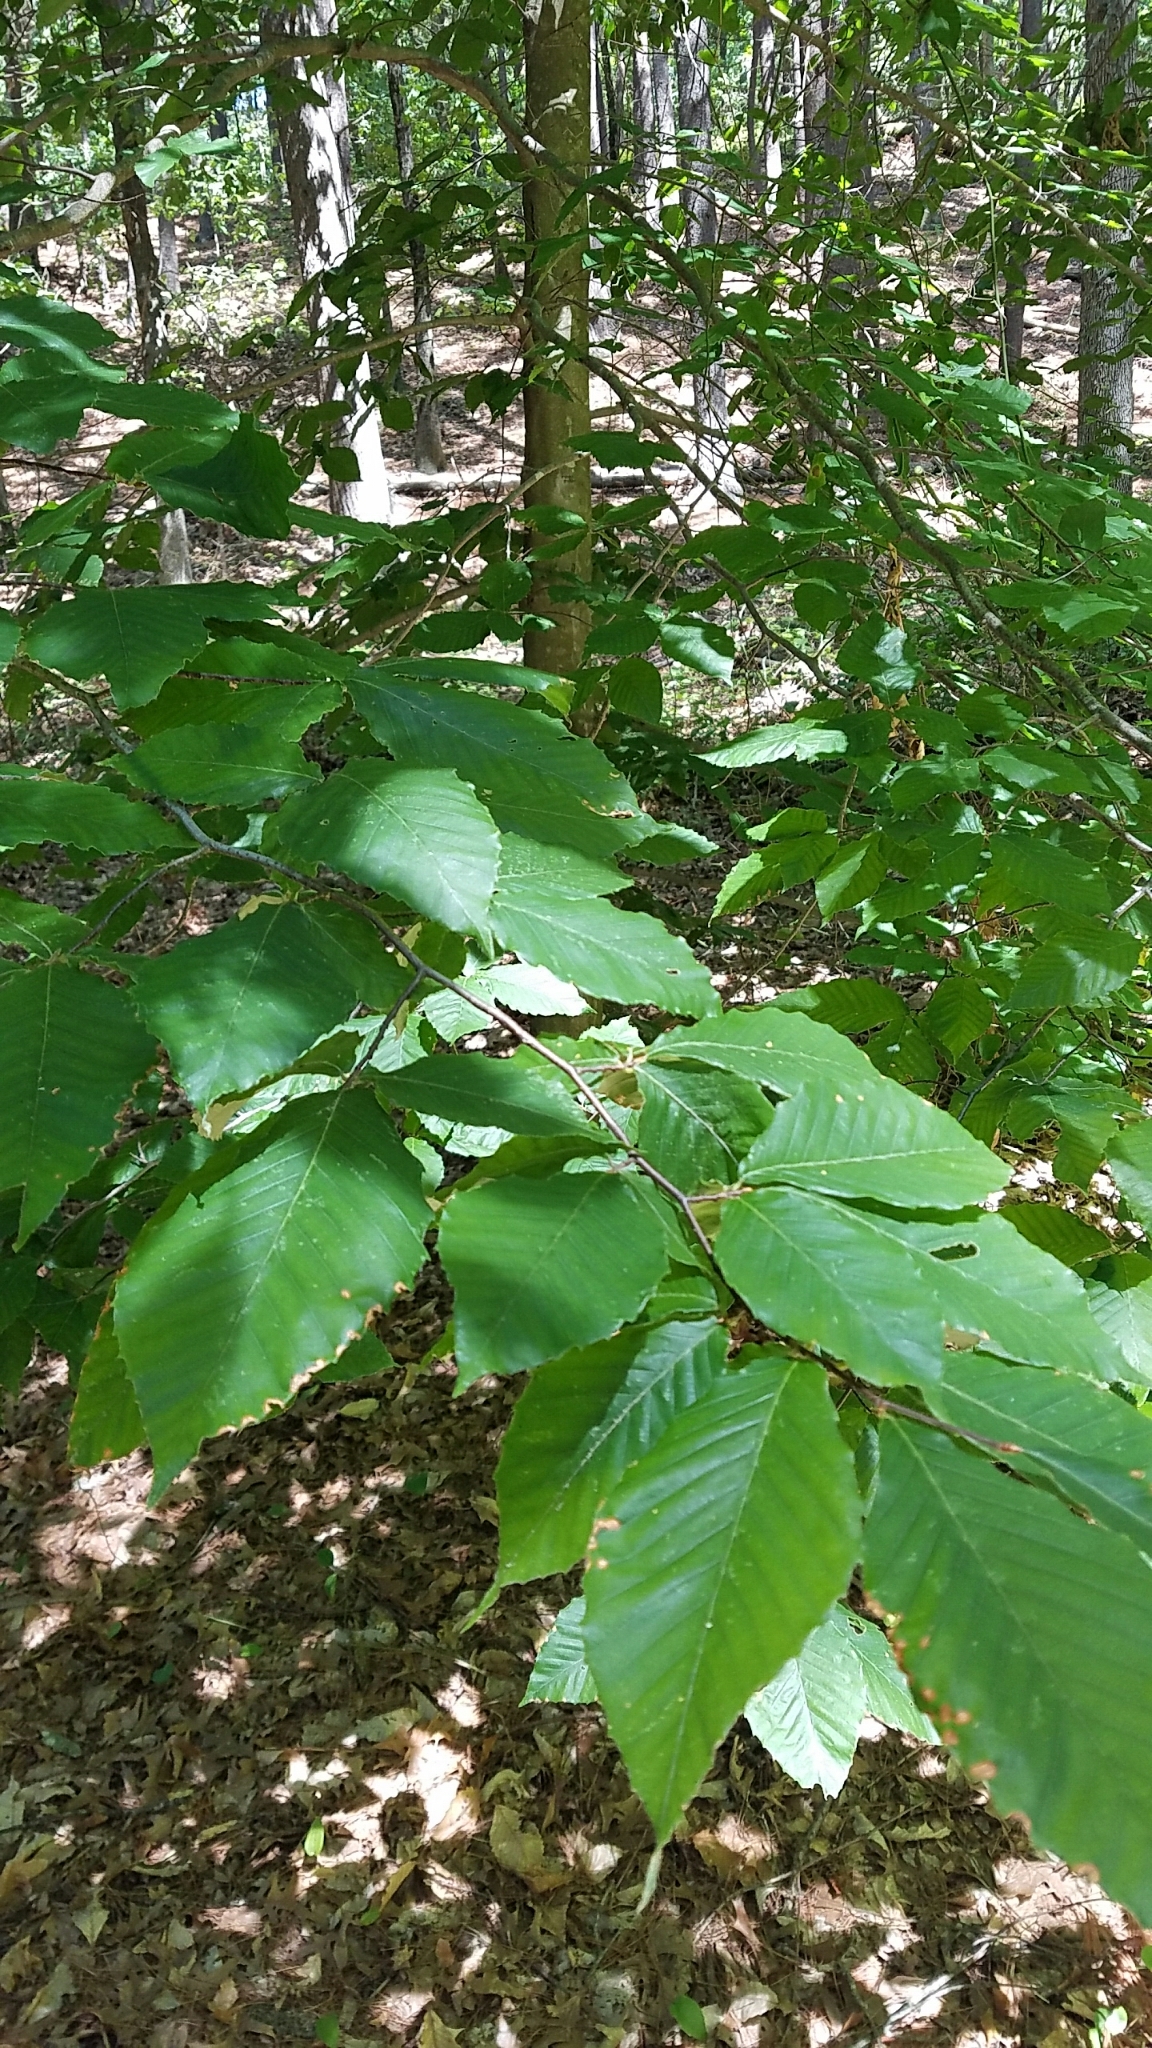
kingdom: Plantae
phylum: Tracheophyta
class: Magnoliopsida
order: Fagales
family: Fagaceae
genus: Fagus
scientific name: Fagus grandifolia
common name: American beech
